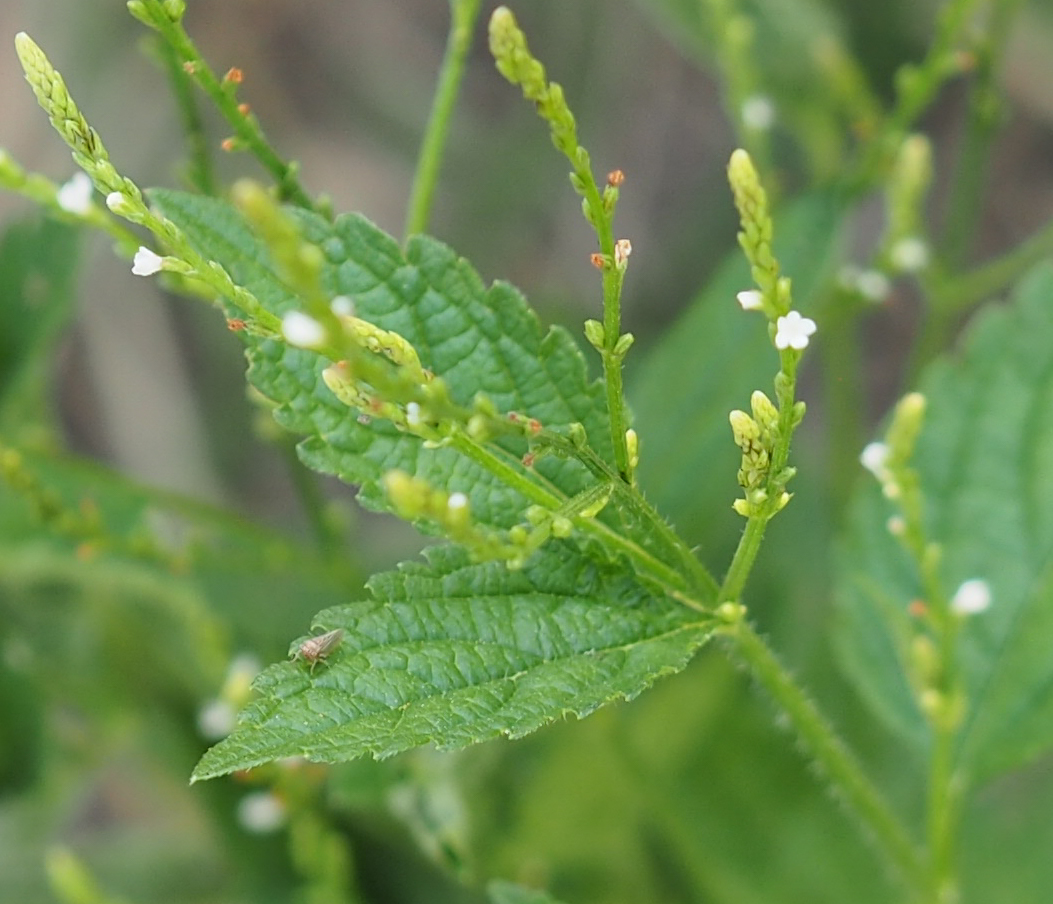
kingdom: Plantae
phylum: Tracheophyta
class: Magnoliopsida
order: Lamiales
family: Verbenaceae
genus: Verbena
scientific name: Verbena urticifolia
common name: Nettle-leaved vervain
